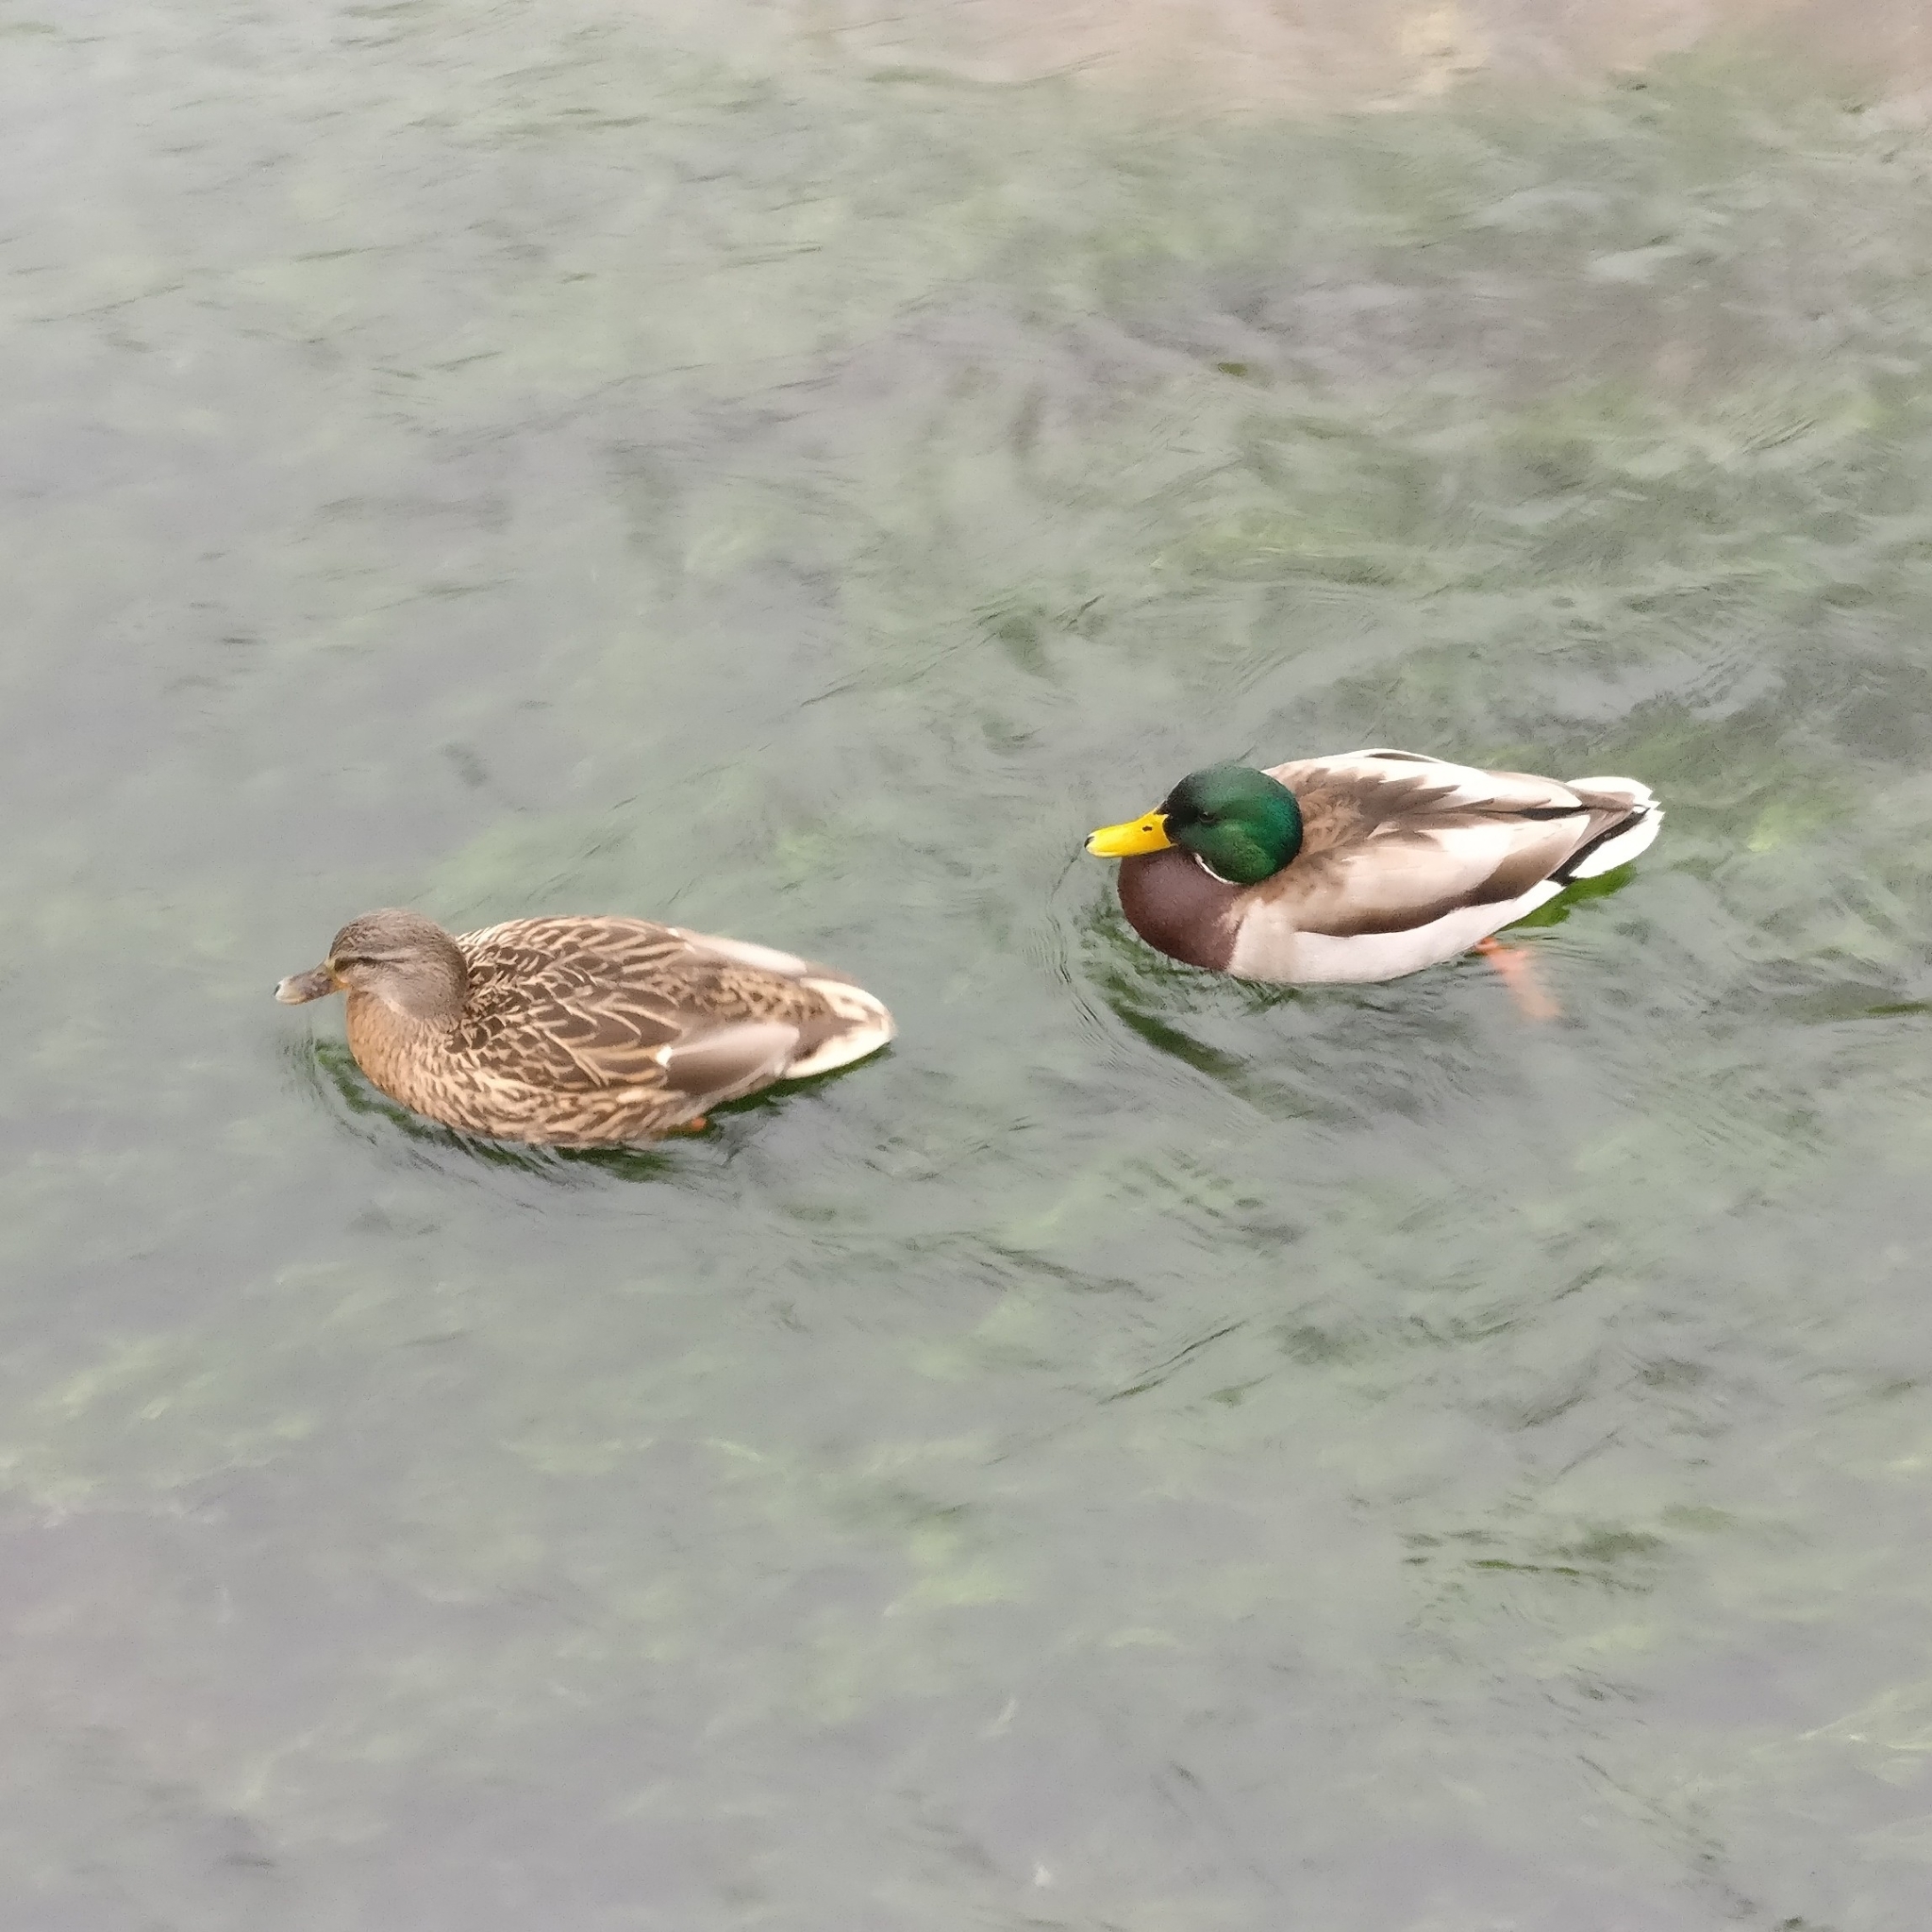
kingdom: Animalia
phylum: Chordata
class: Aves
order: Anseriformes
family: Anatidae
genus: Anas
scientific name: Anas platyrhynchos
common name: Mallard
